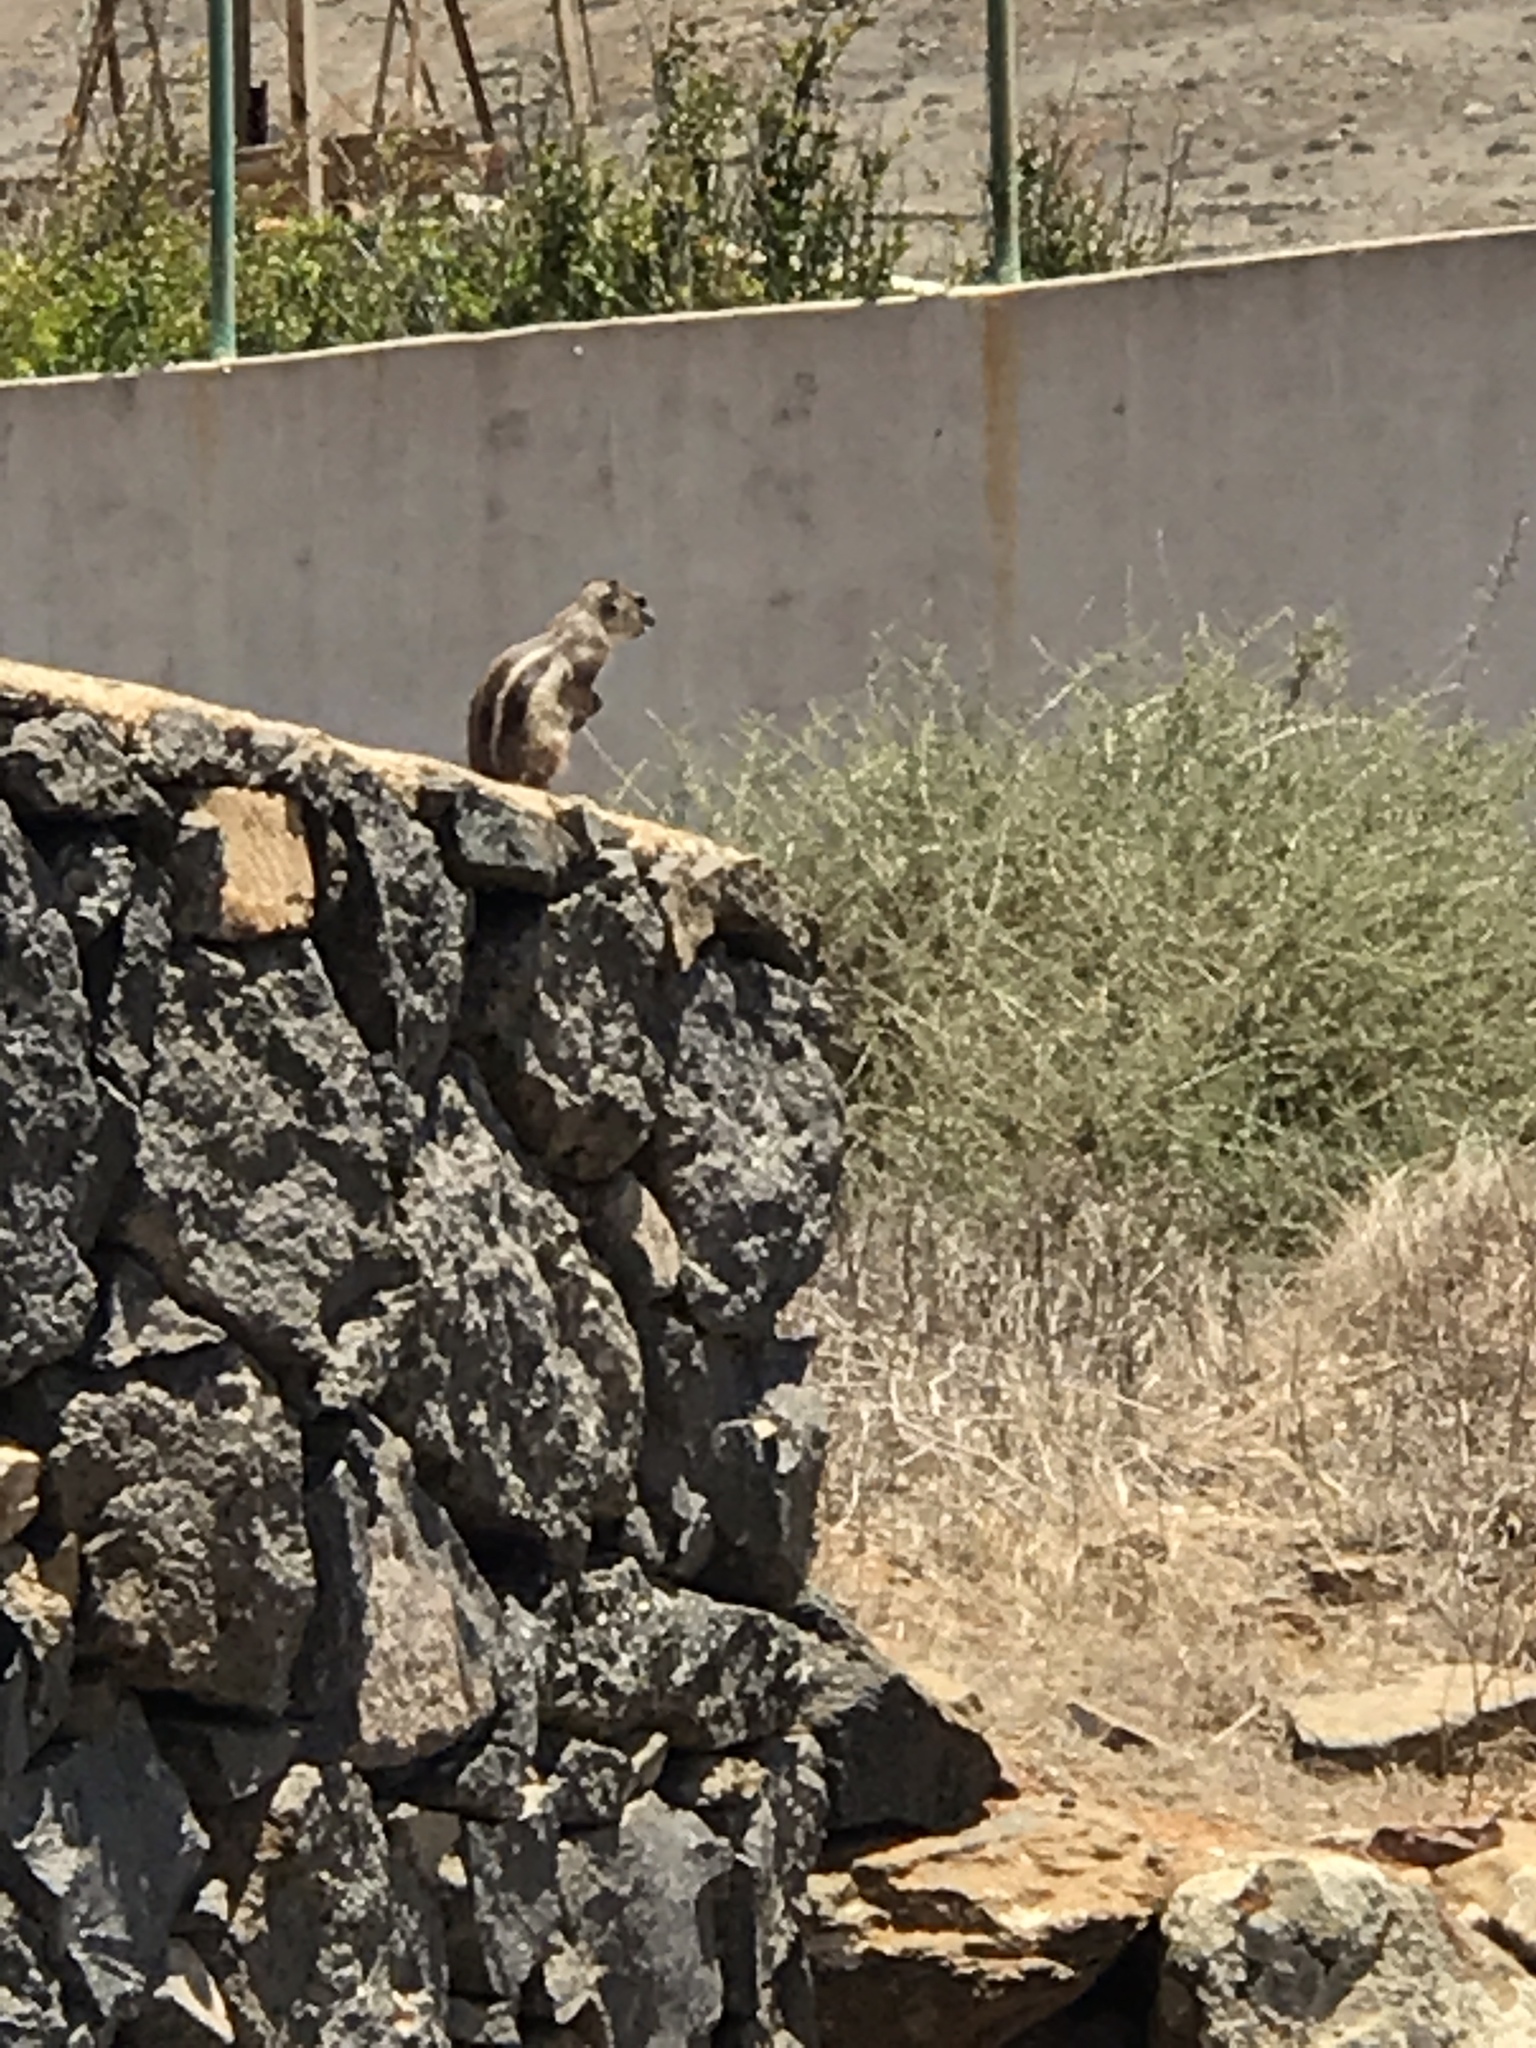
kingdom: Animalia
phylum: Chordata
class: Mammalia
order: Rodentia
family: Sciuridae
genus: Atlantoxerus
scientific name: Atlantoxerus getulus
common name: Barbary ground squirrel
